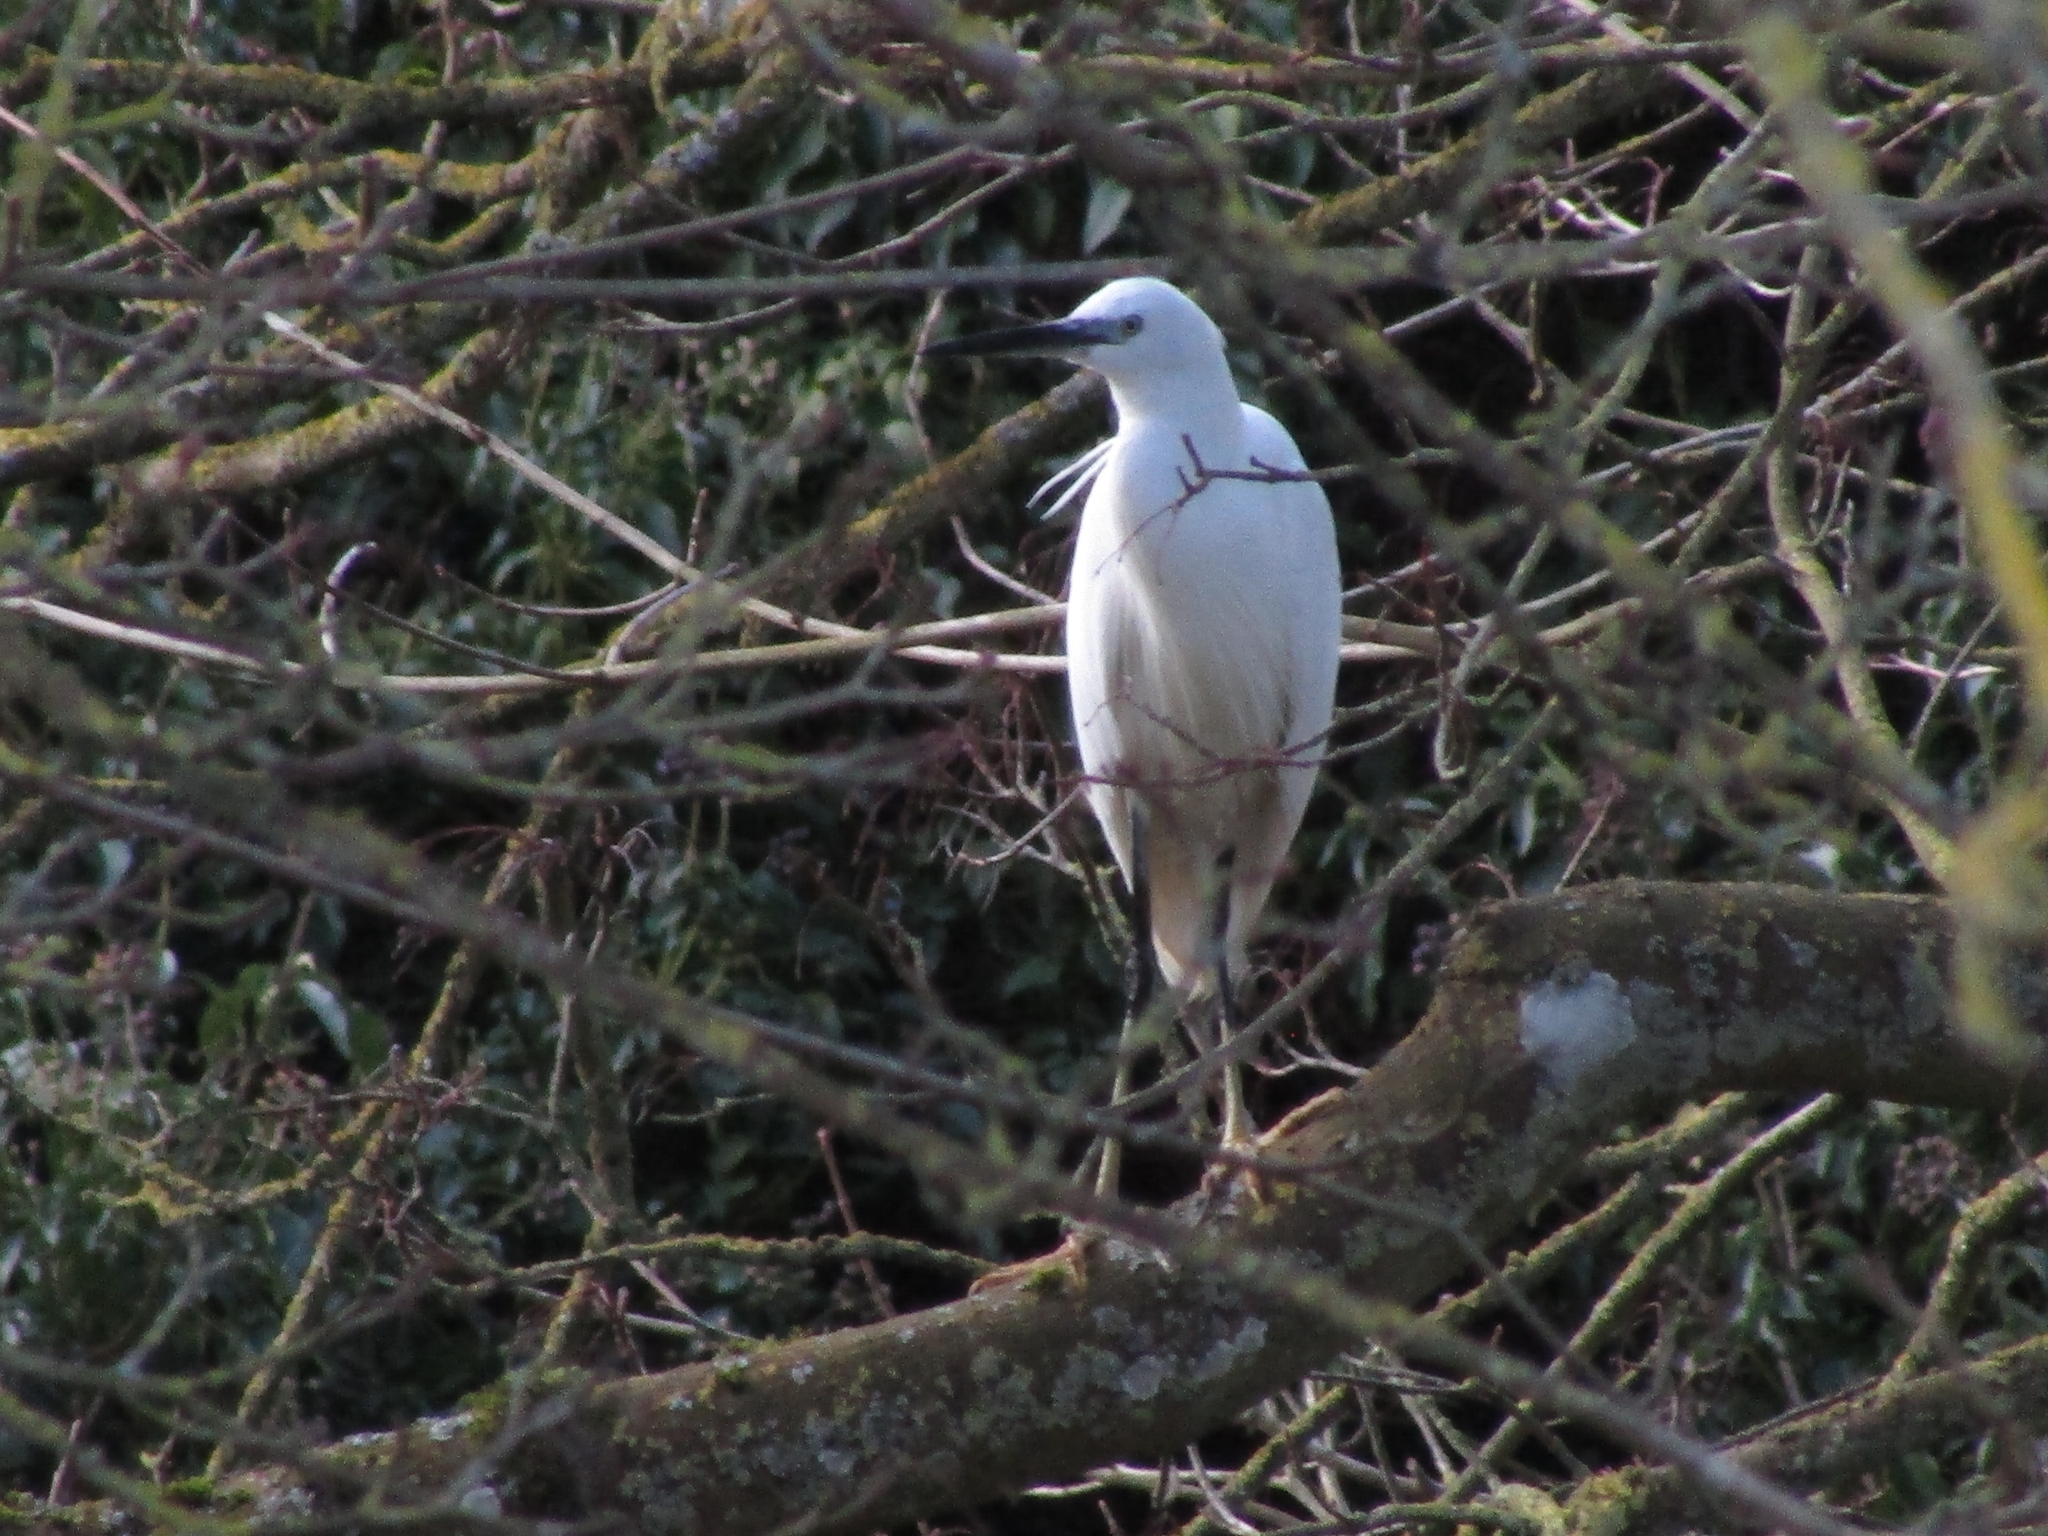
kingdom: Animalia
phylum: Chordata
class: Aves
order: Pelecaniformes
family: Ardeidae
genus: Egretta
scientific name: Egretta garzetta
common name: Little egret
